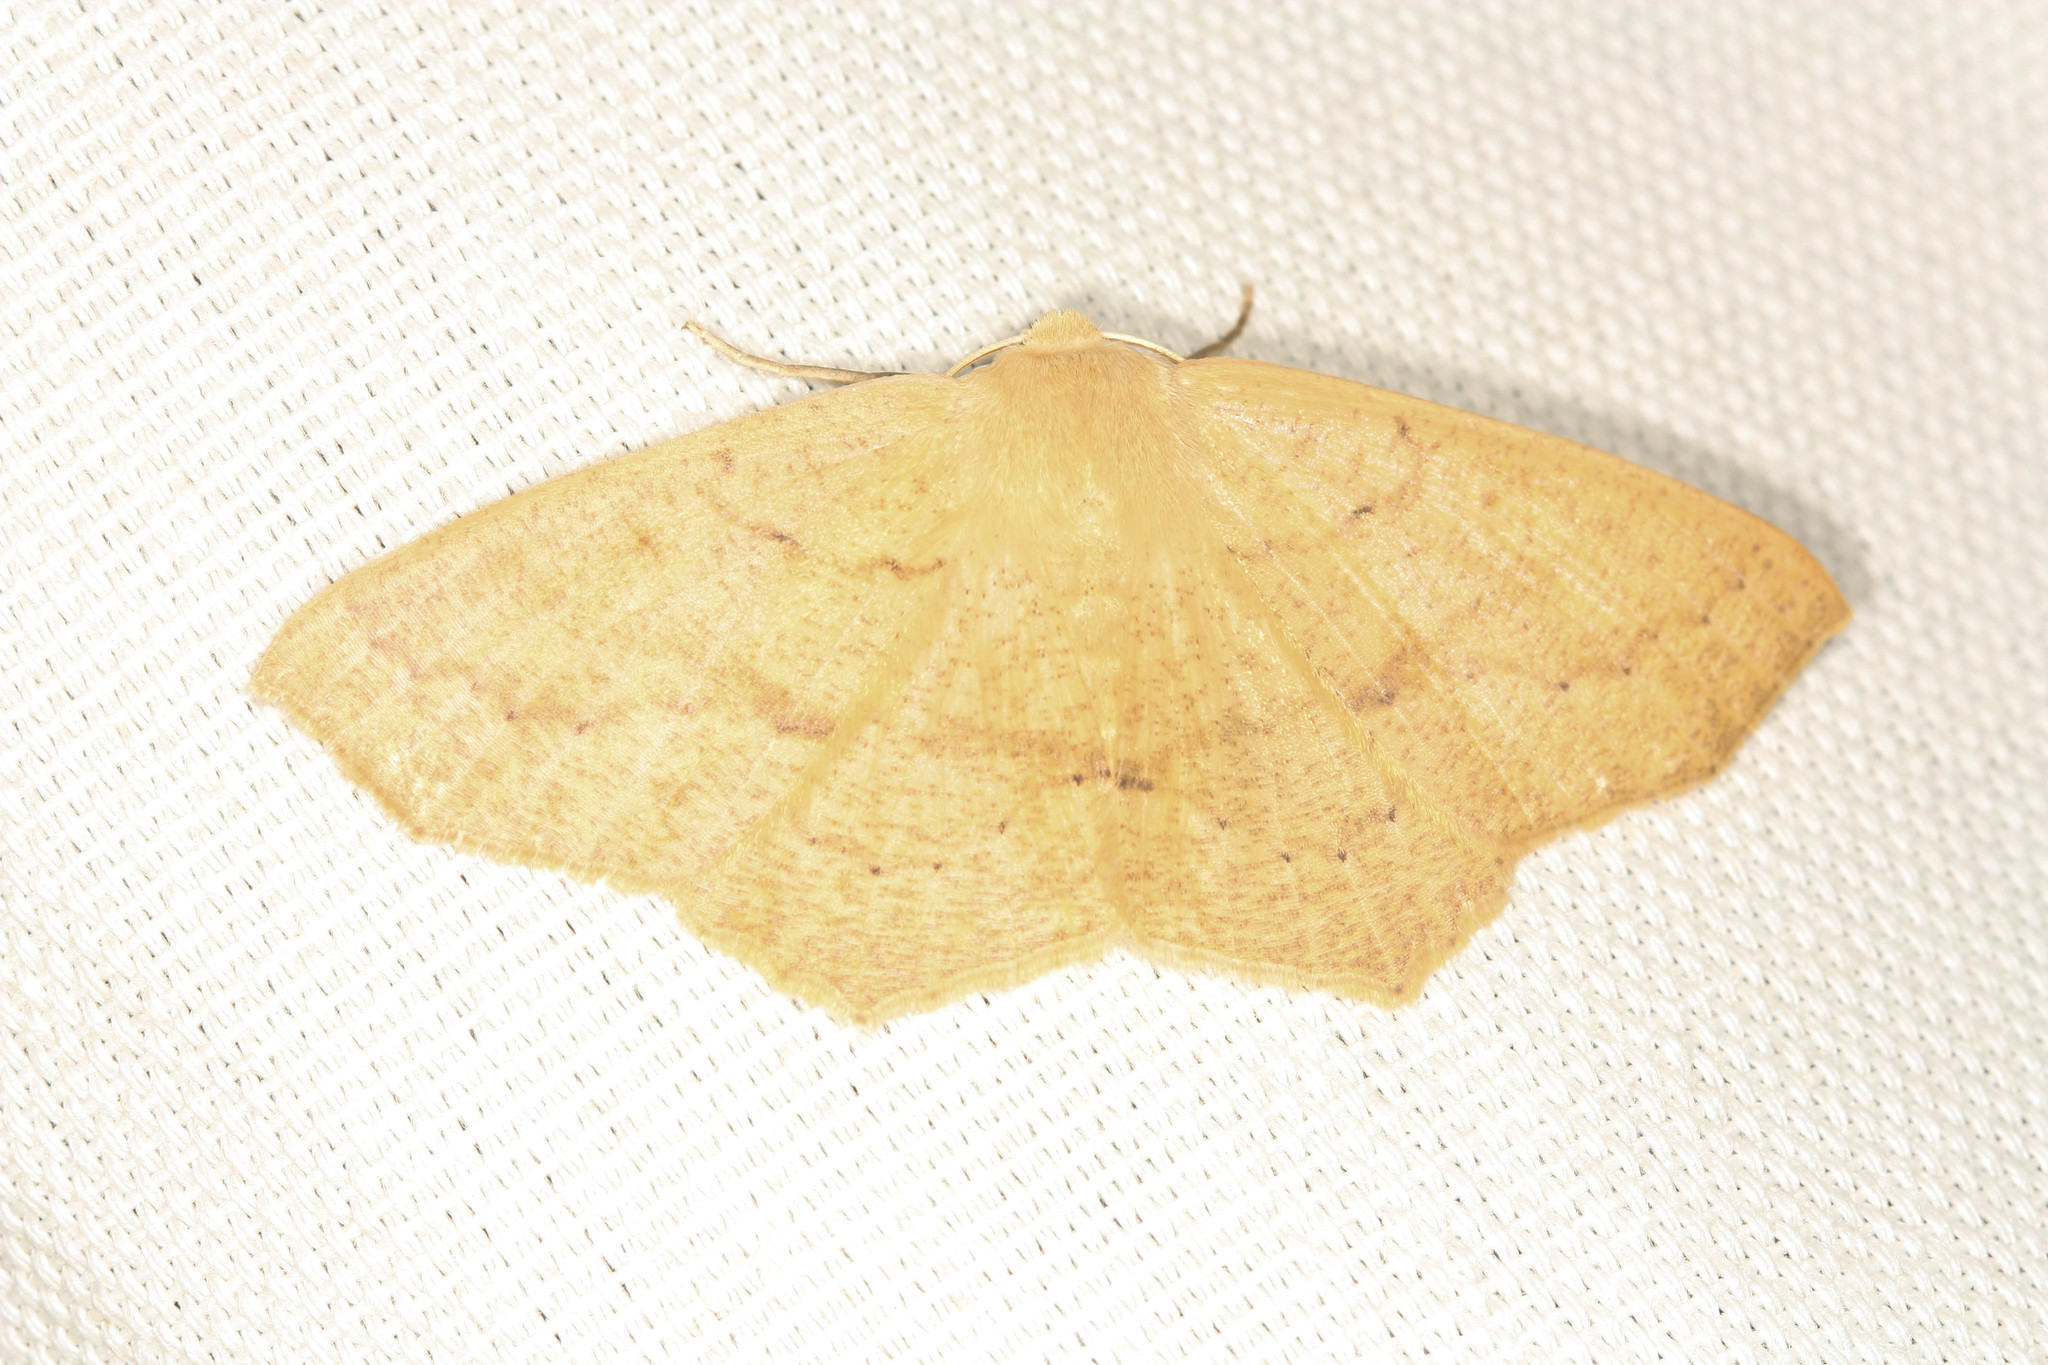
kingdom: Animalia
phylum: Arthropoda
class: Insecta
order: Lepidoptera
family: Geometridae
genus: Sabulodes
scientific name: Sabulodes aegrotata
